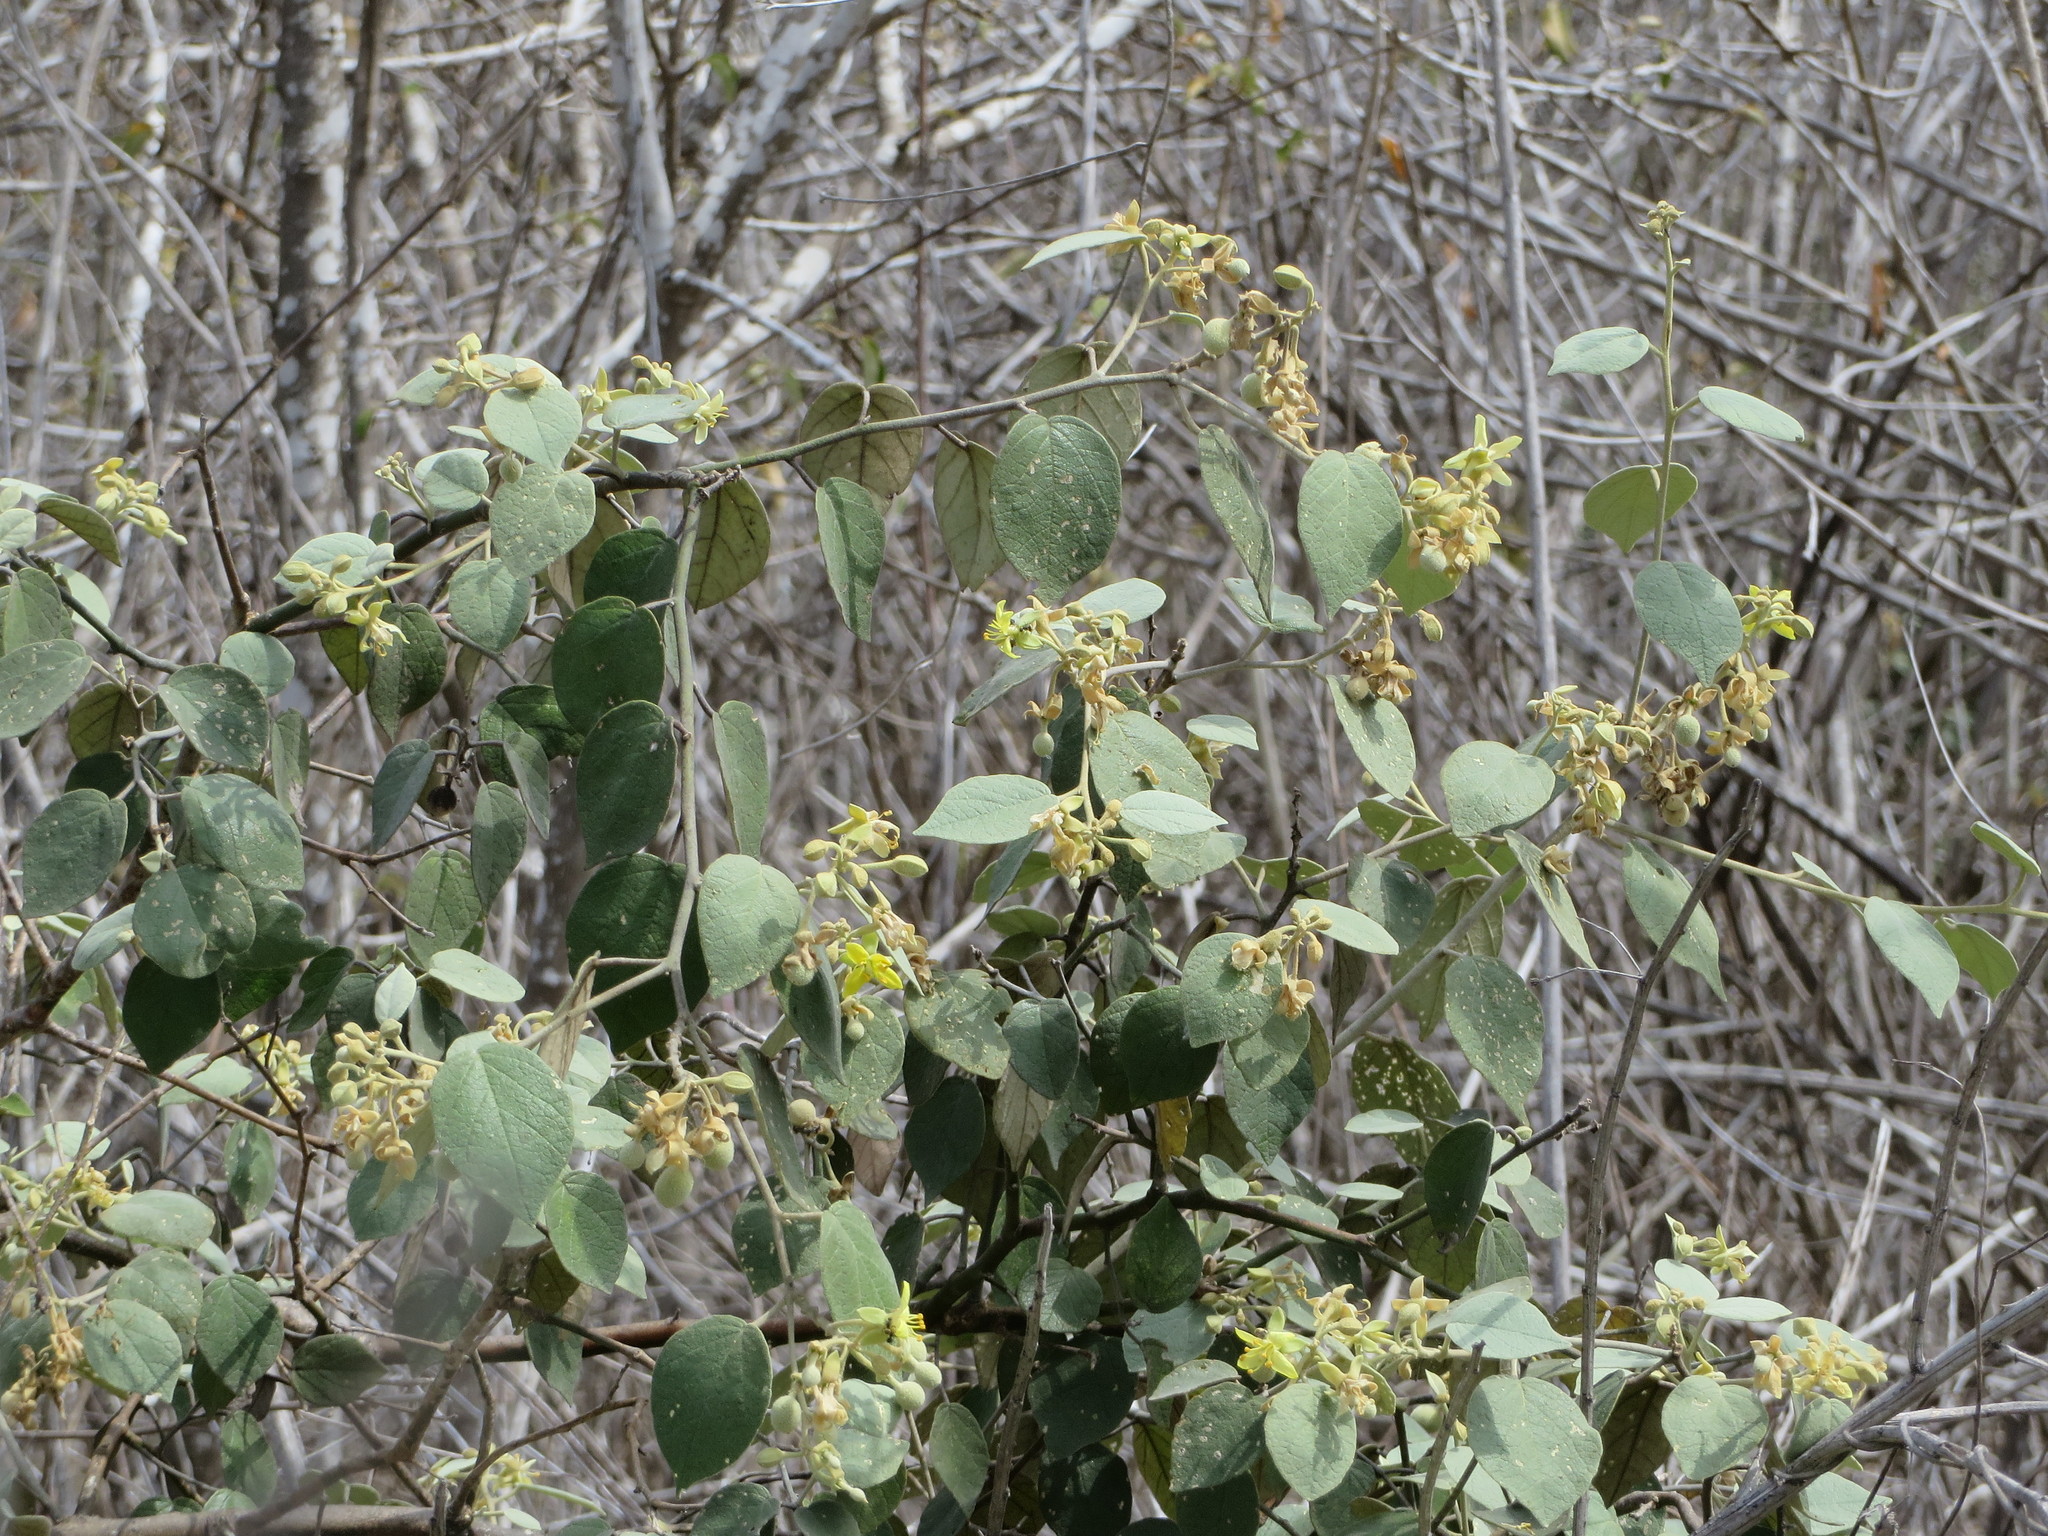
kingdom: Plantae
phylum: Tracheophyta
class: Magnoliopsida
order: Brassicales
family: Capparaceae
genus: Capparicordis
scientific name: Capparicordis crotonoides
